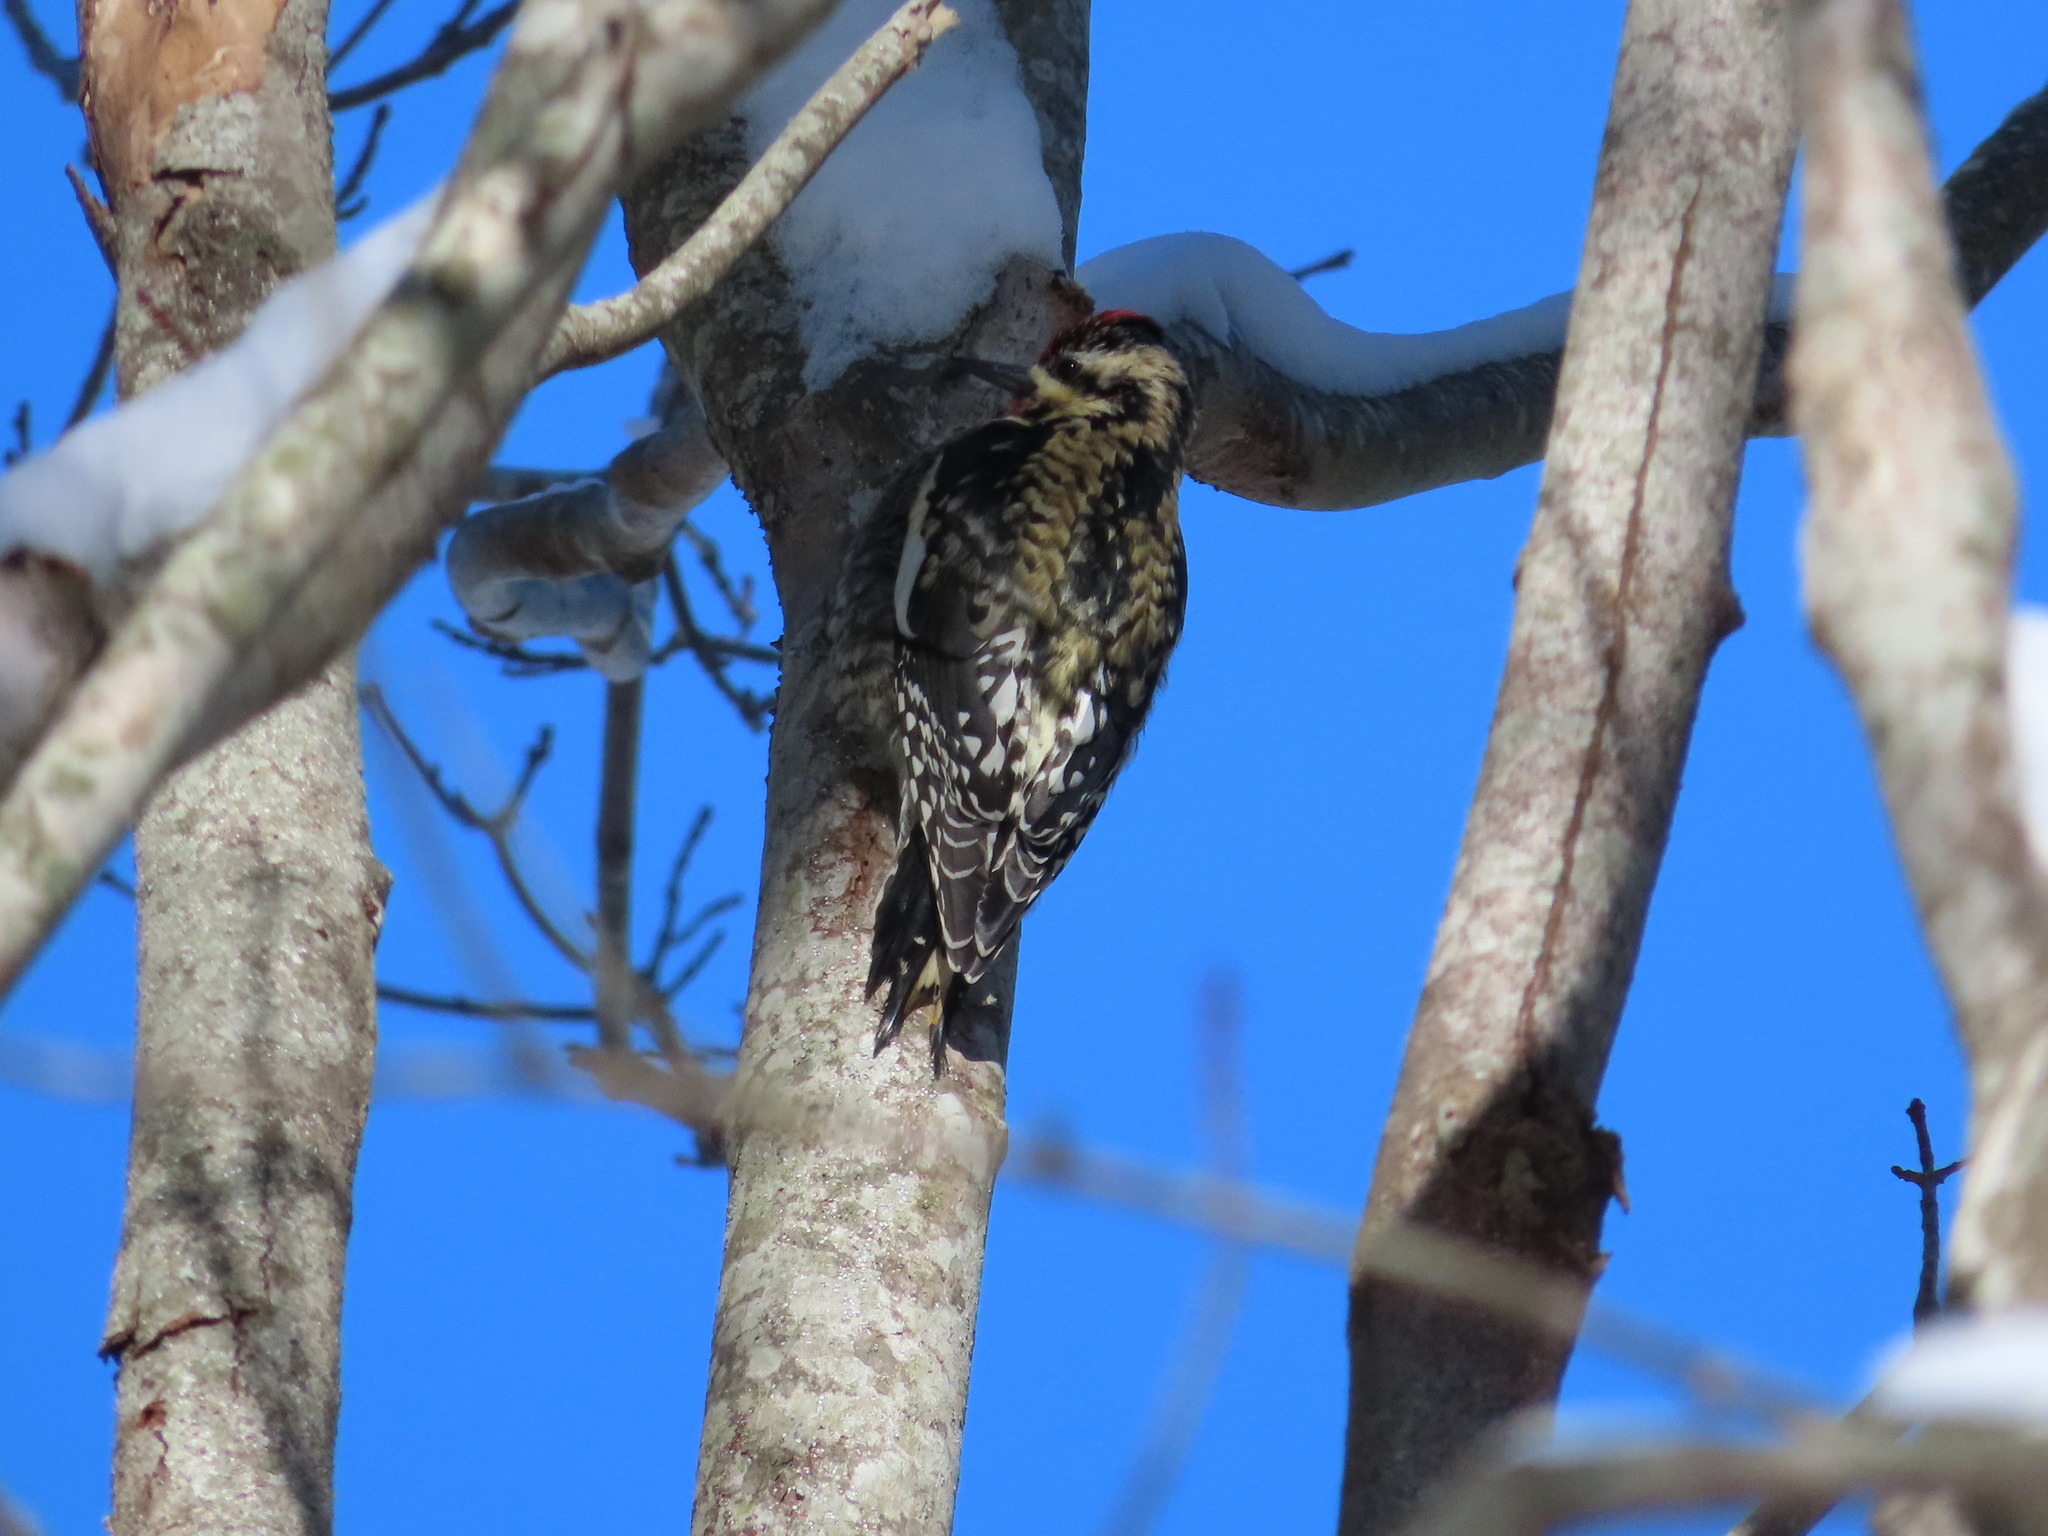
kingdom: Animalia
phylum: Chordata
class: Aves
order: Piciformes
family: Picidae
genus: Sphyrapicus
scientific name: Sphyrapicus varius
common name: Yellow-bellied sapsucker
